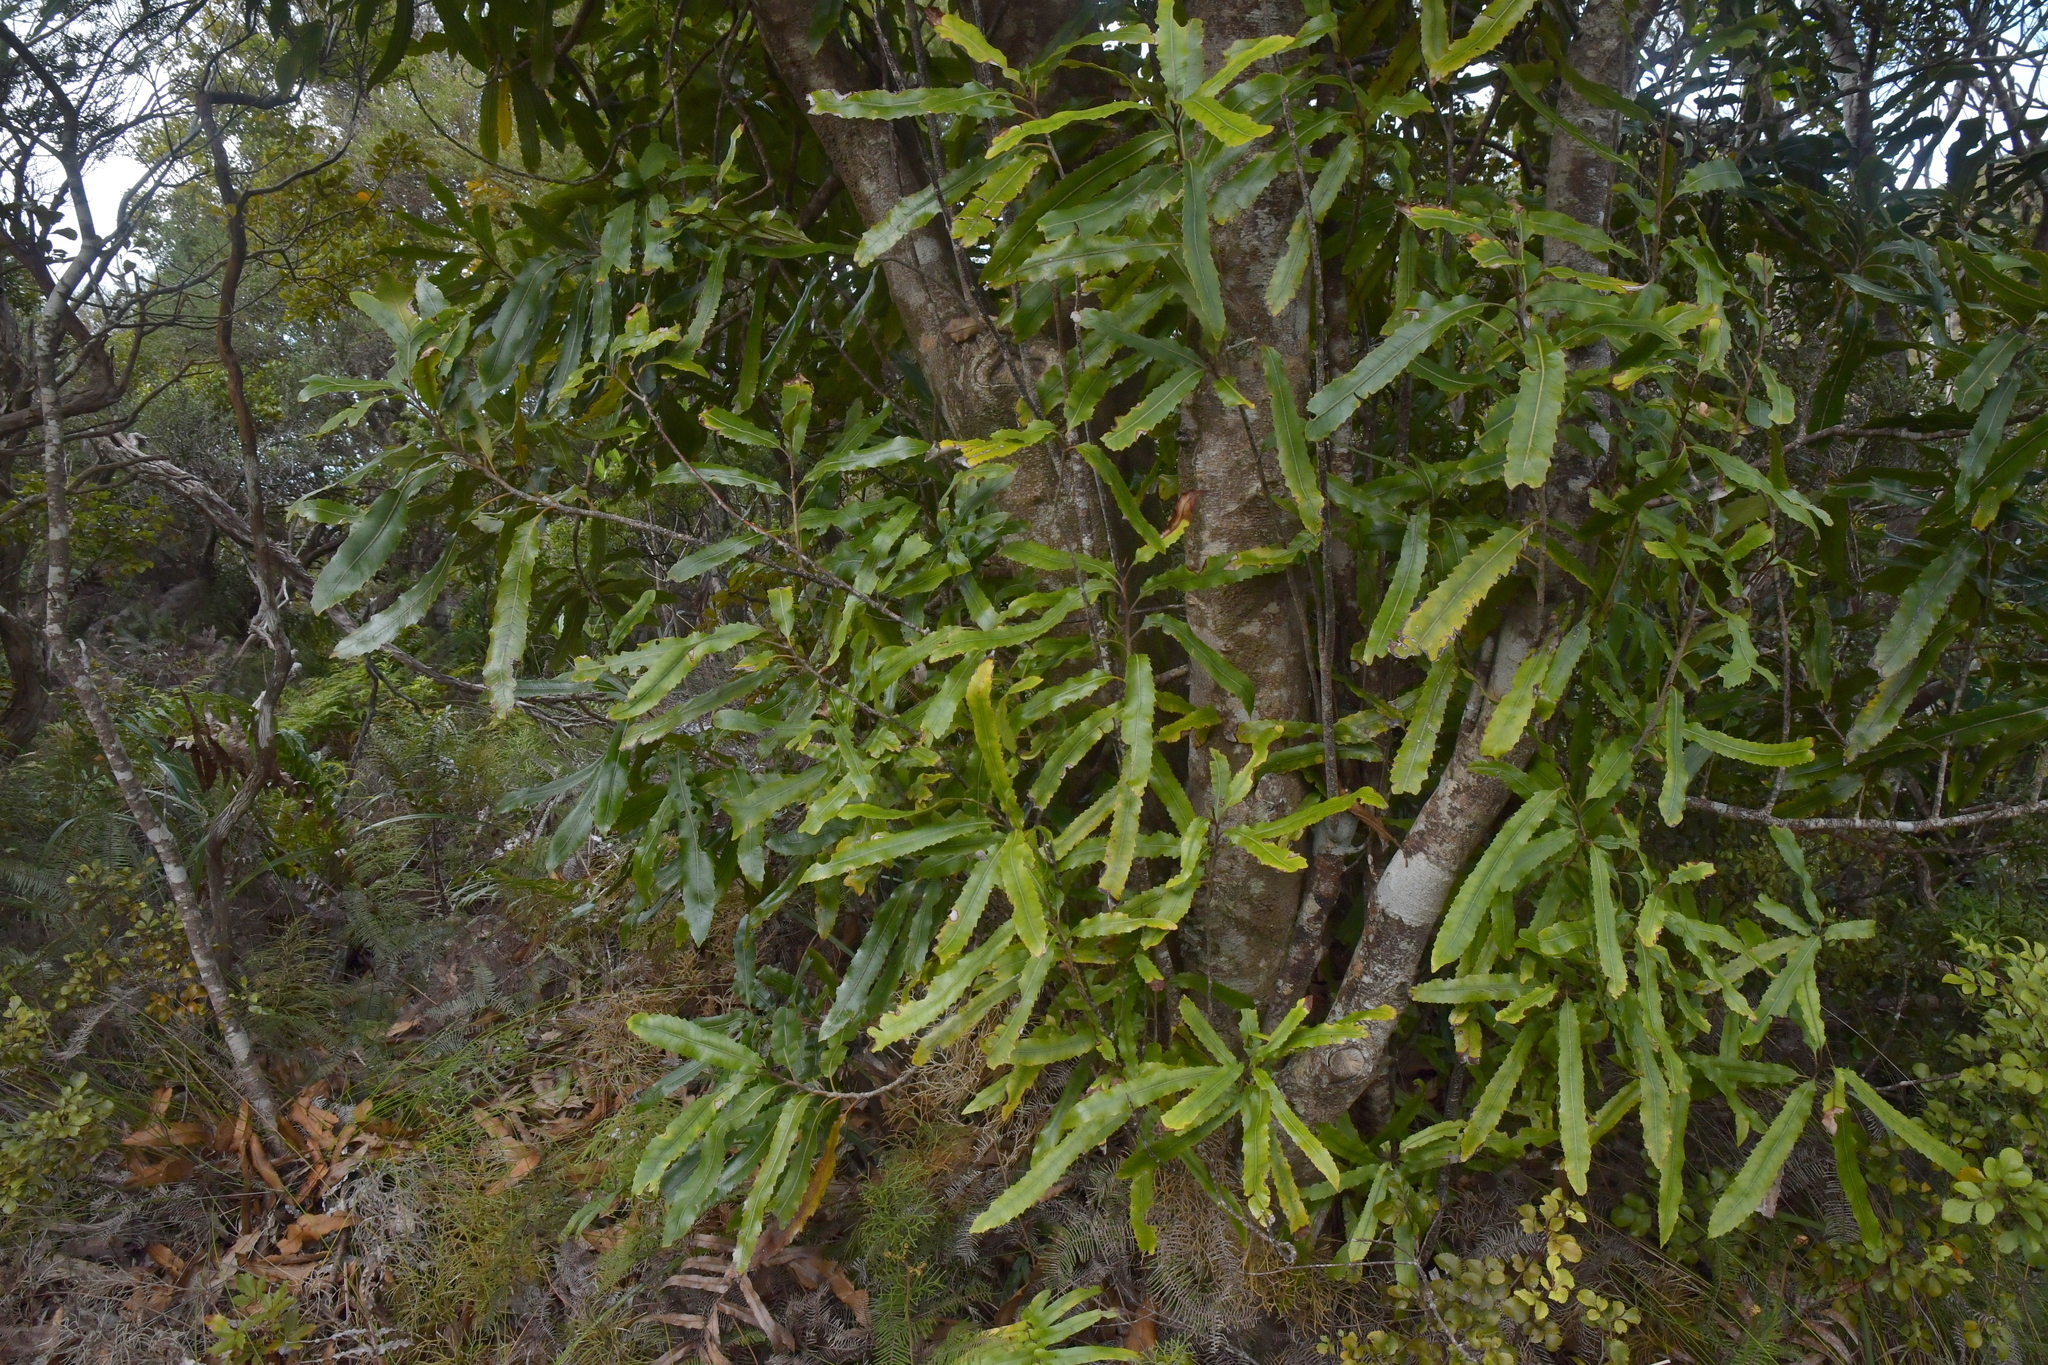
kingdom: Plantae
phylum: Tracheophyta
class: Magnoliopsida
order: Proteales
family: Proteaceae
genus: Knightia
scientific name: Knightia excelsa
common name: New zealand-honeysuckle
